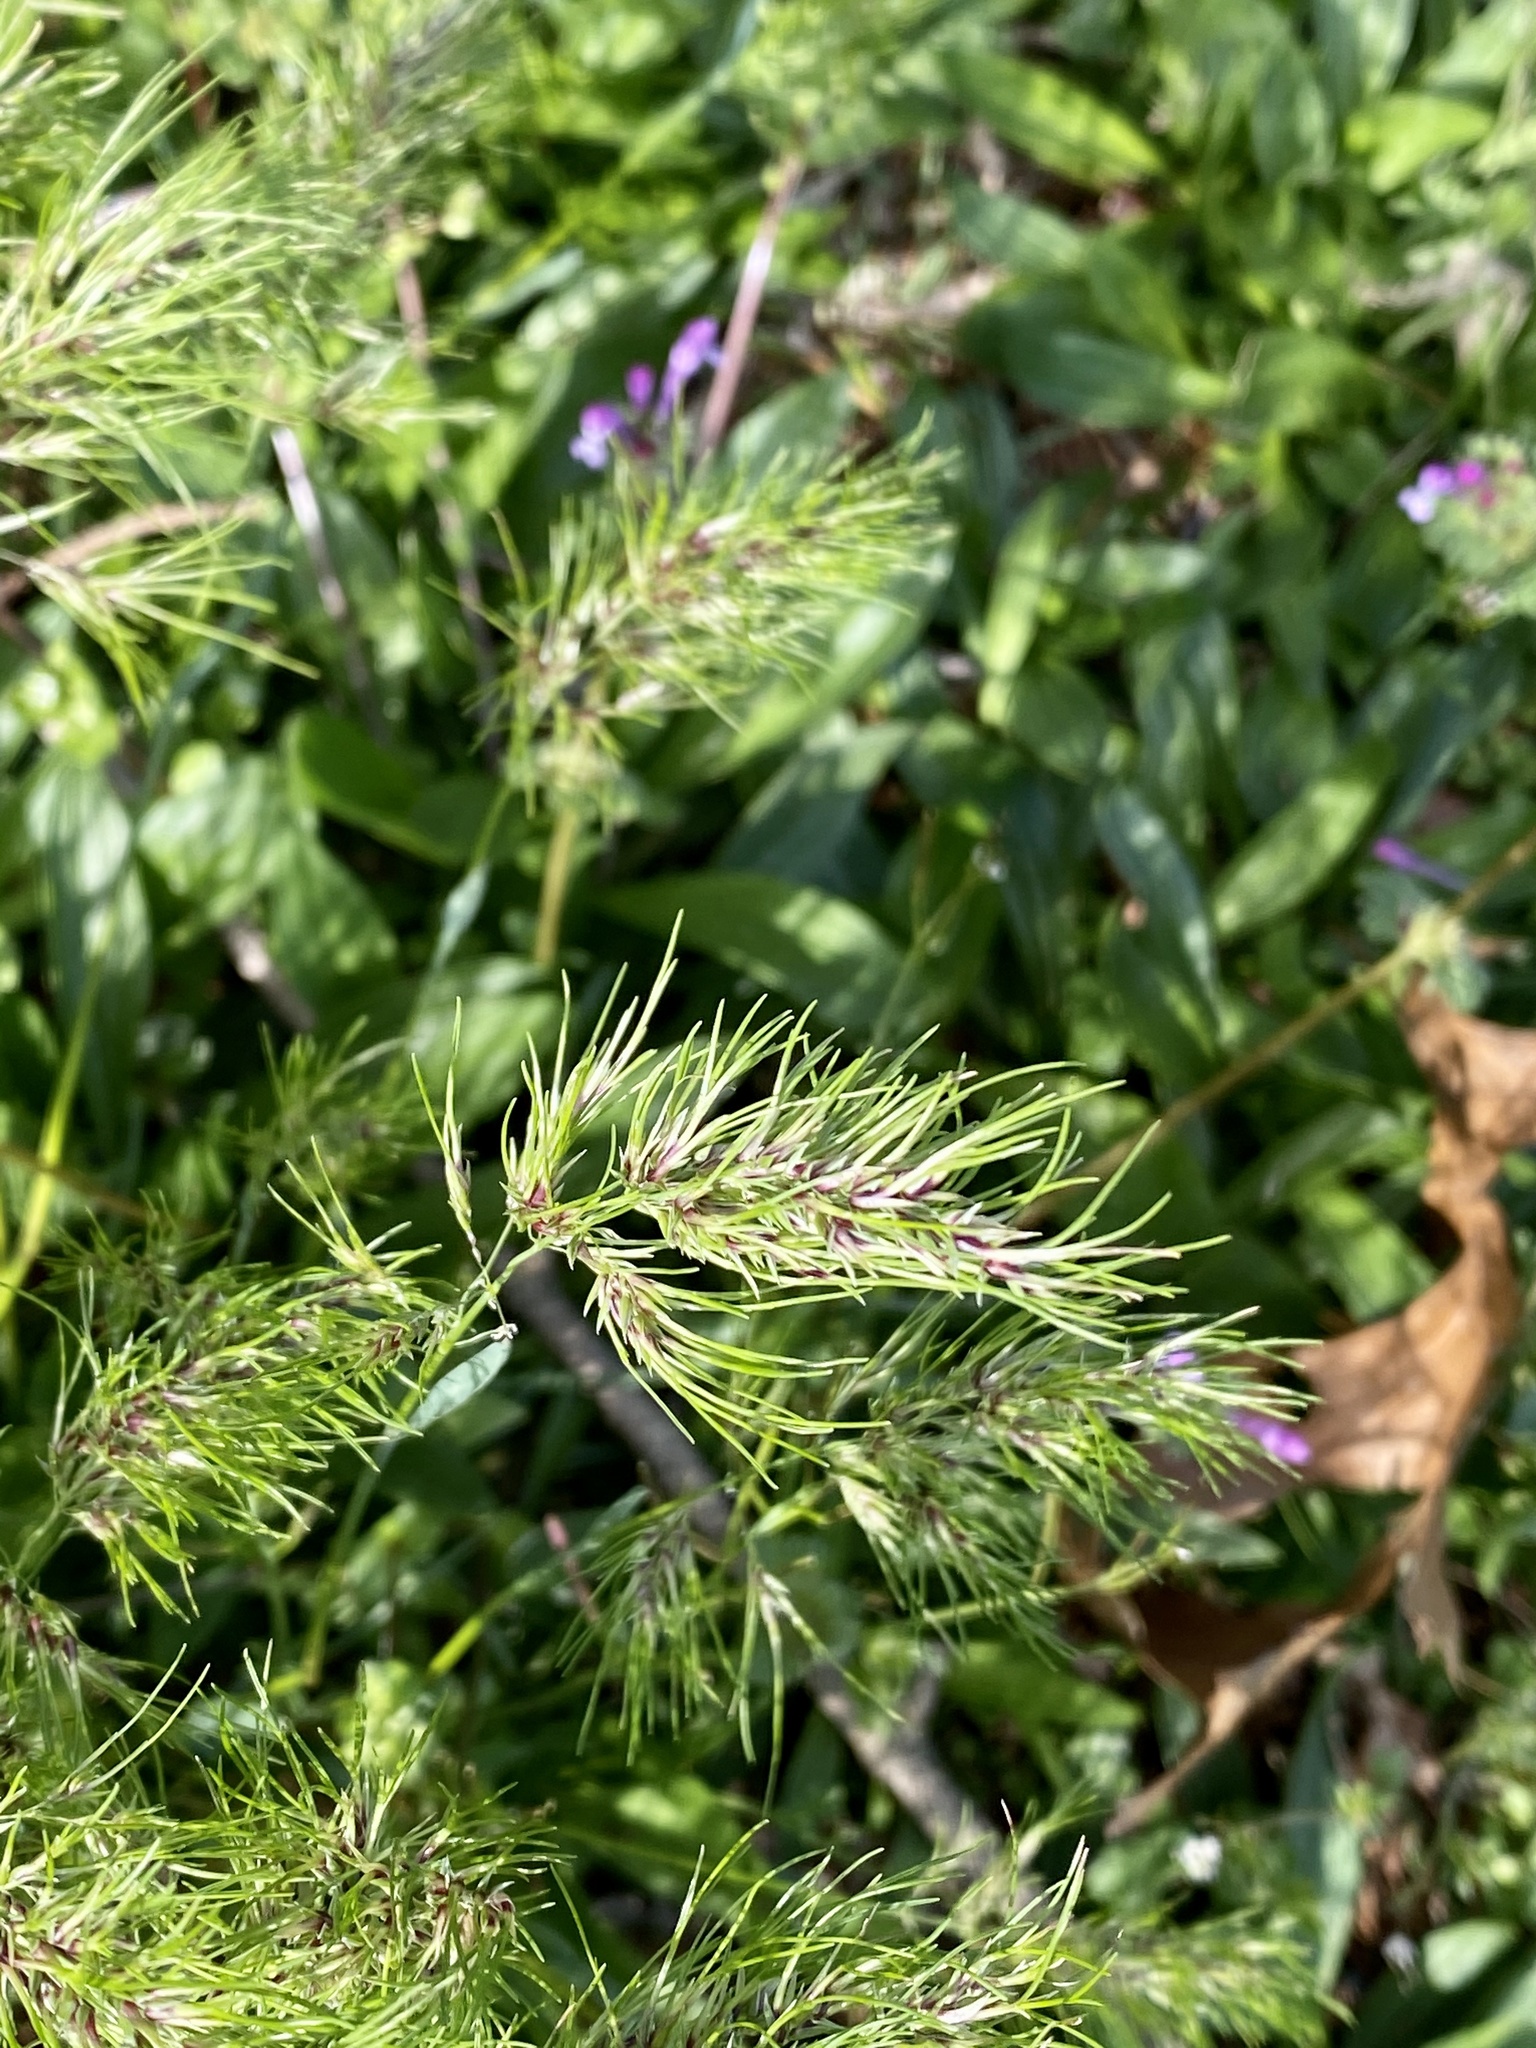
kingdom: Plantae
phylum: Tracheophyta
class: Liliopsida
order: Poales
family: Poaceae
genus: Poa
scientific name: Poa bulbosa
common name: Bulbous bluegrass
